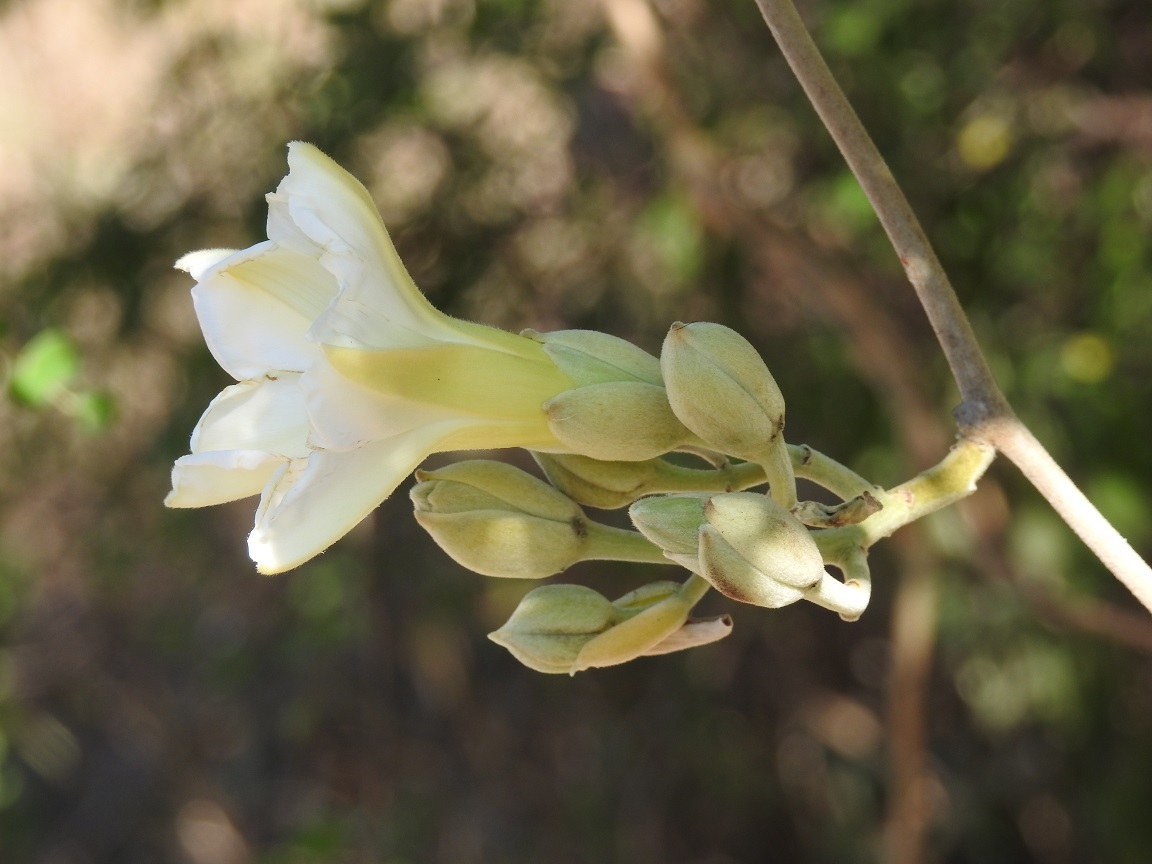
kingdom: Plantae
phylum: Tracheophyta
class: Magnoliopsida
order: Solanales
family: Convolvulaceae
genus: Ipomoea
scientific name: Ipomoea praecana
